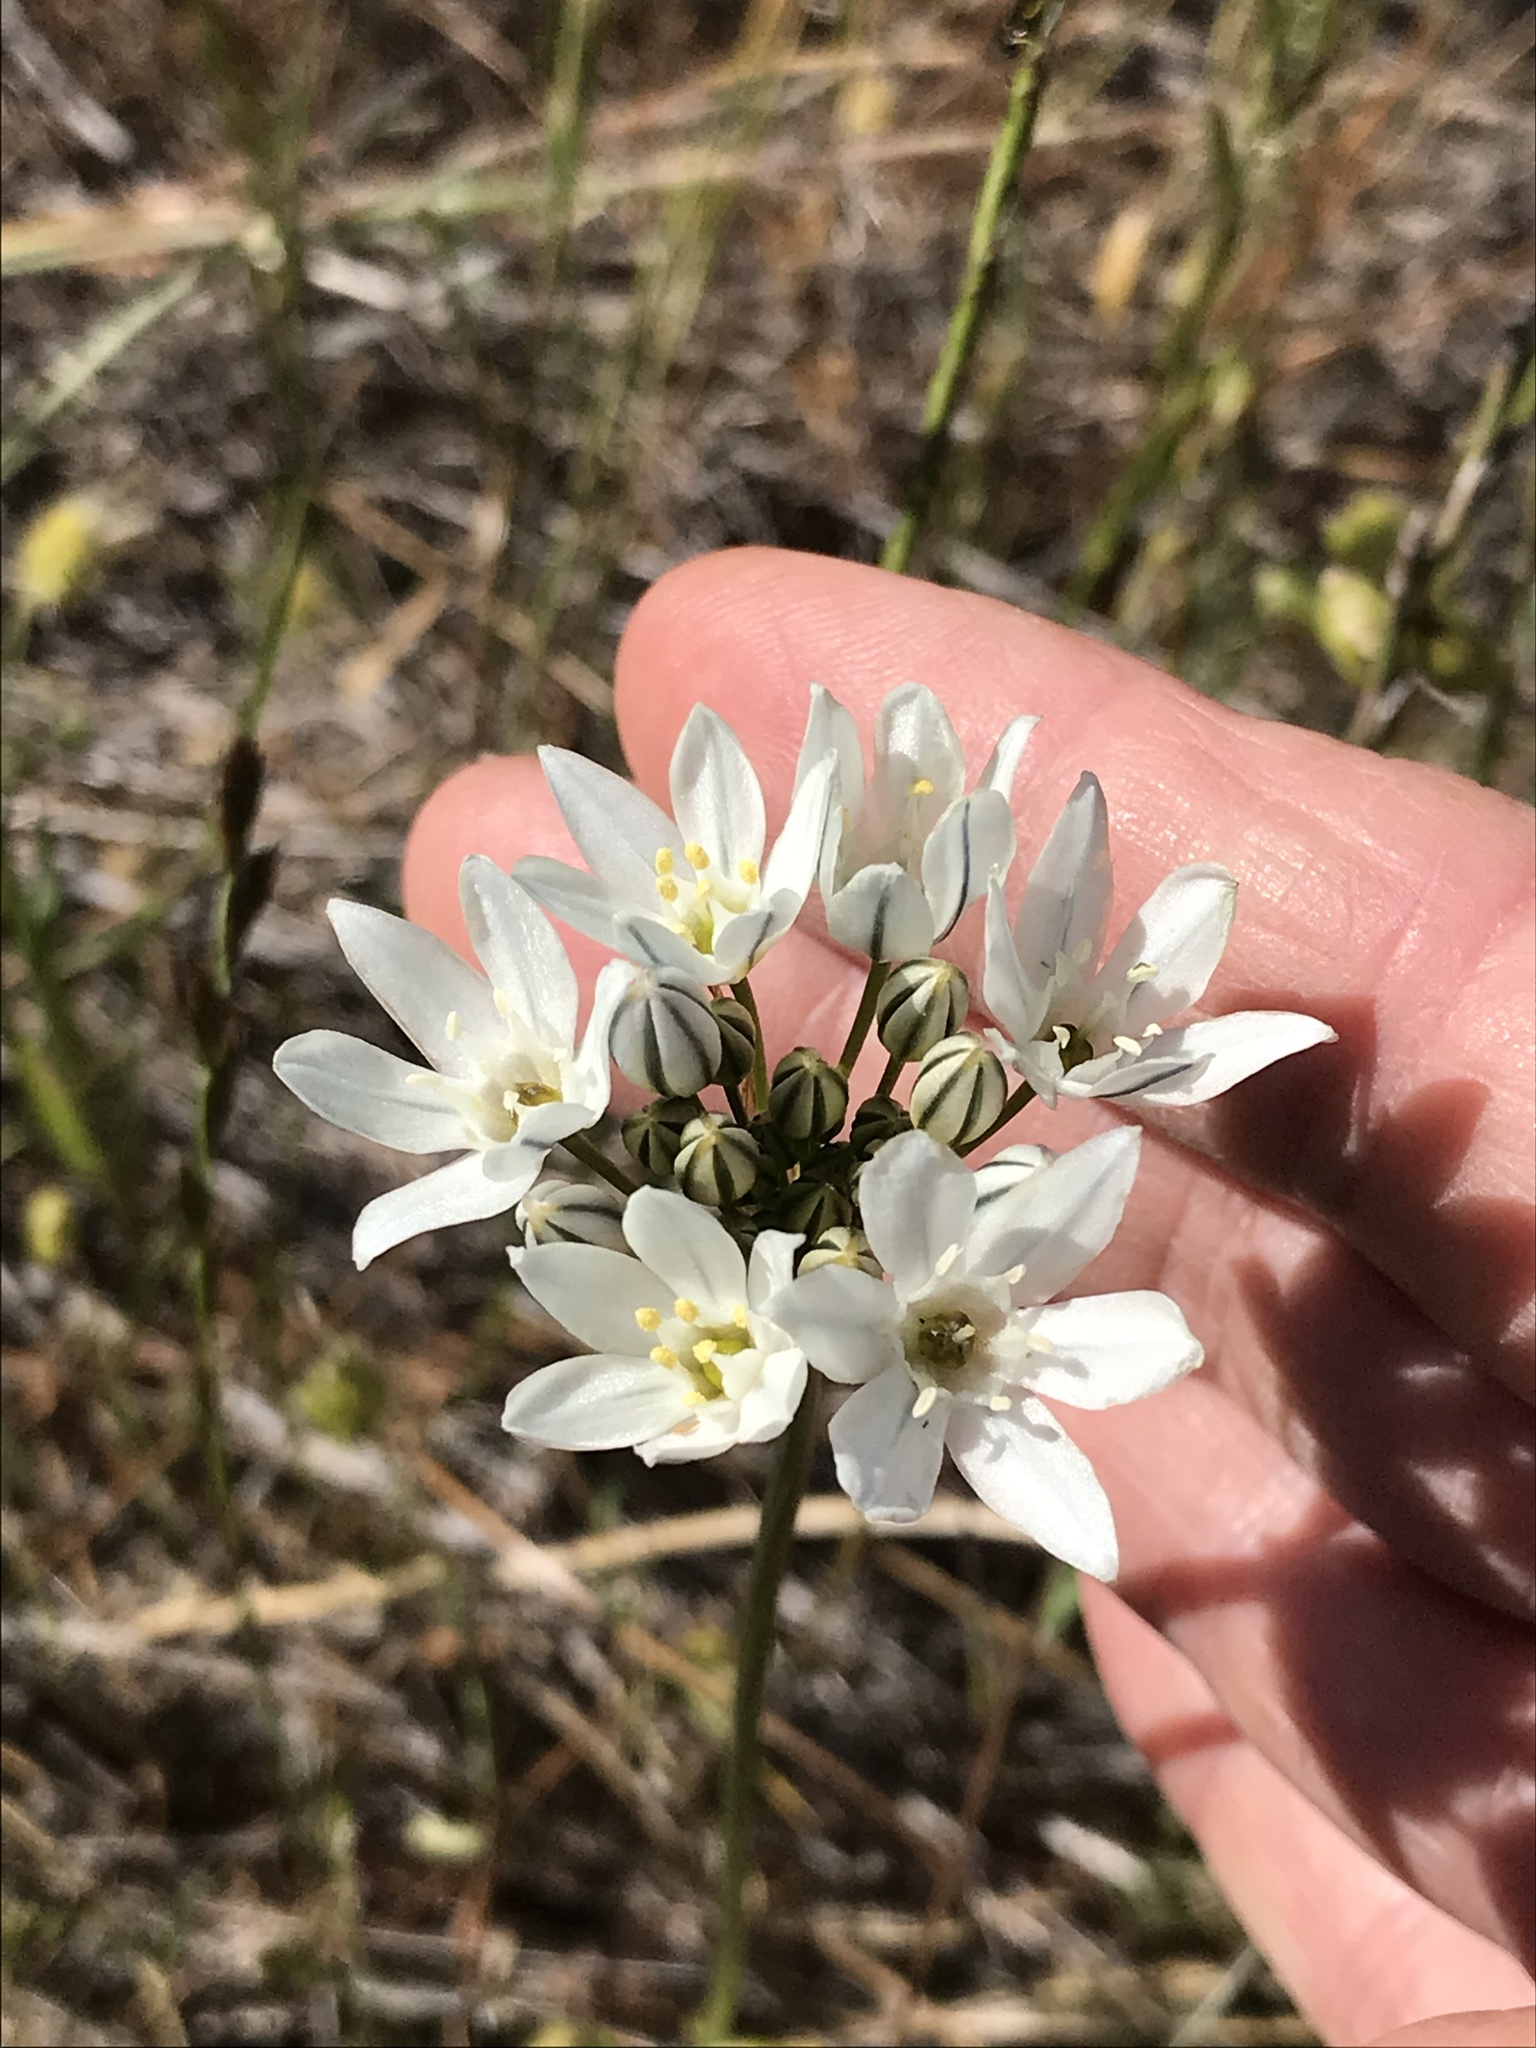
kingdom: Plantae
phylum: Tracheophyta
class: Liliopsida
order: Asparagales
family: Asparagaceae
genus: Triteleia
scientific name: Triteleia hyacinthina
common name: White brodiaea
